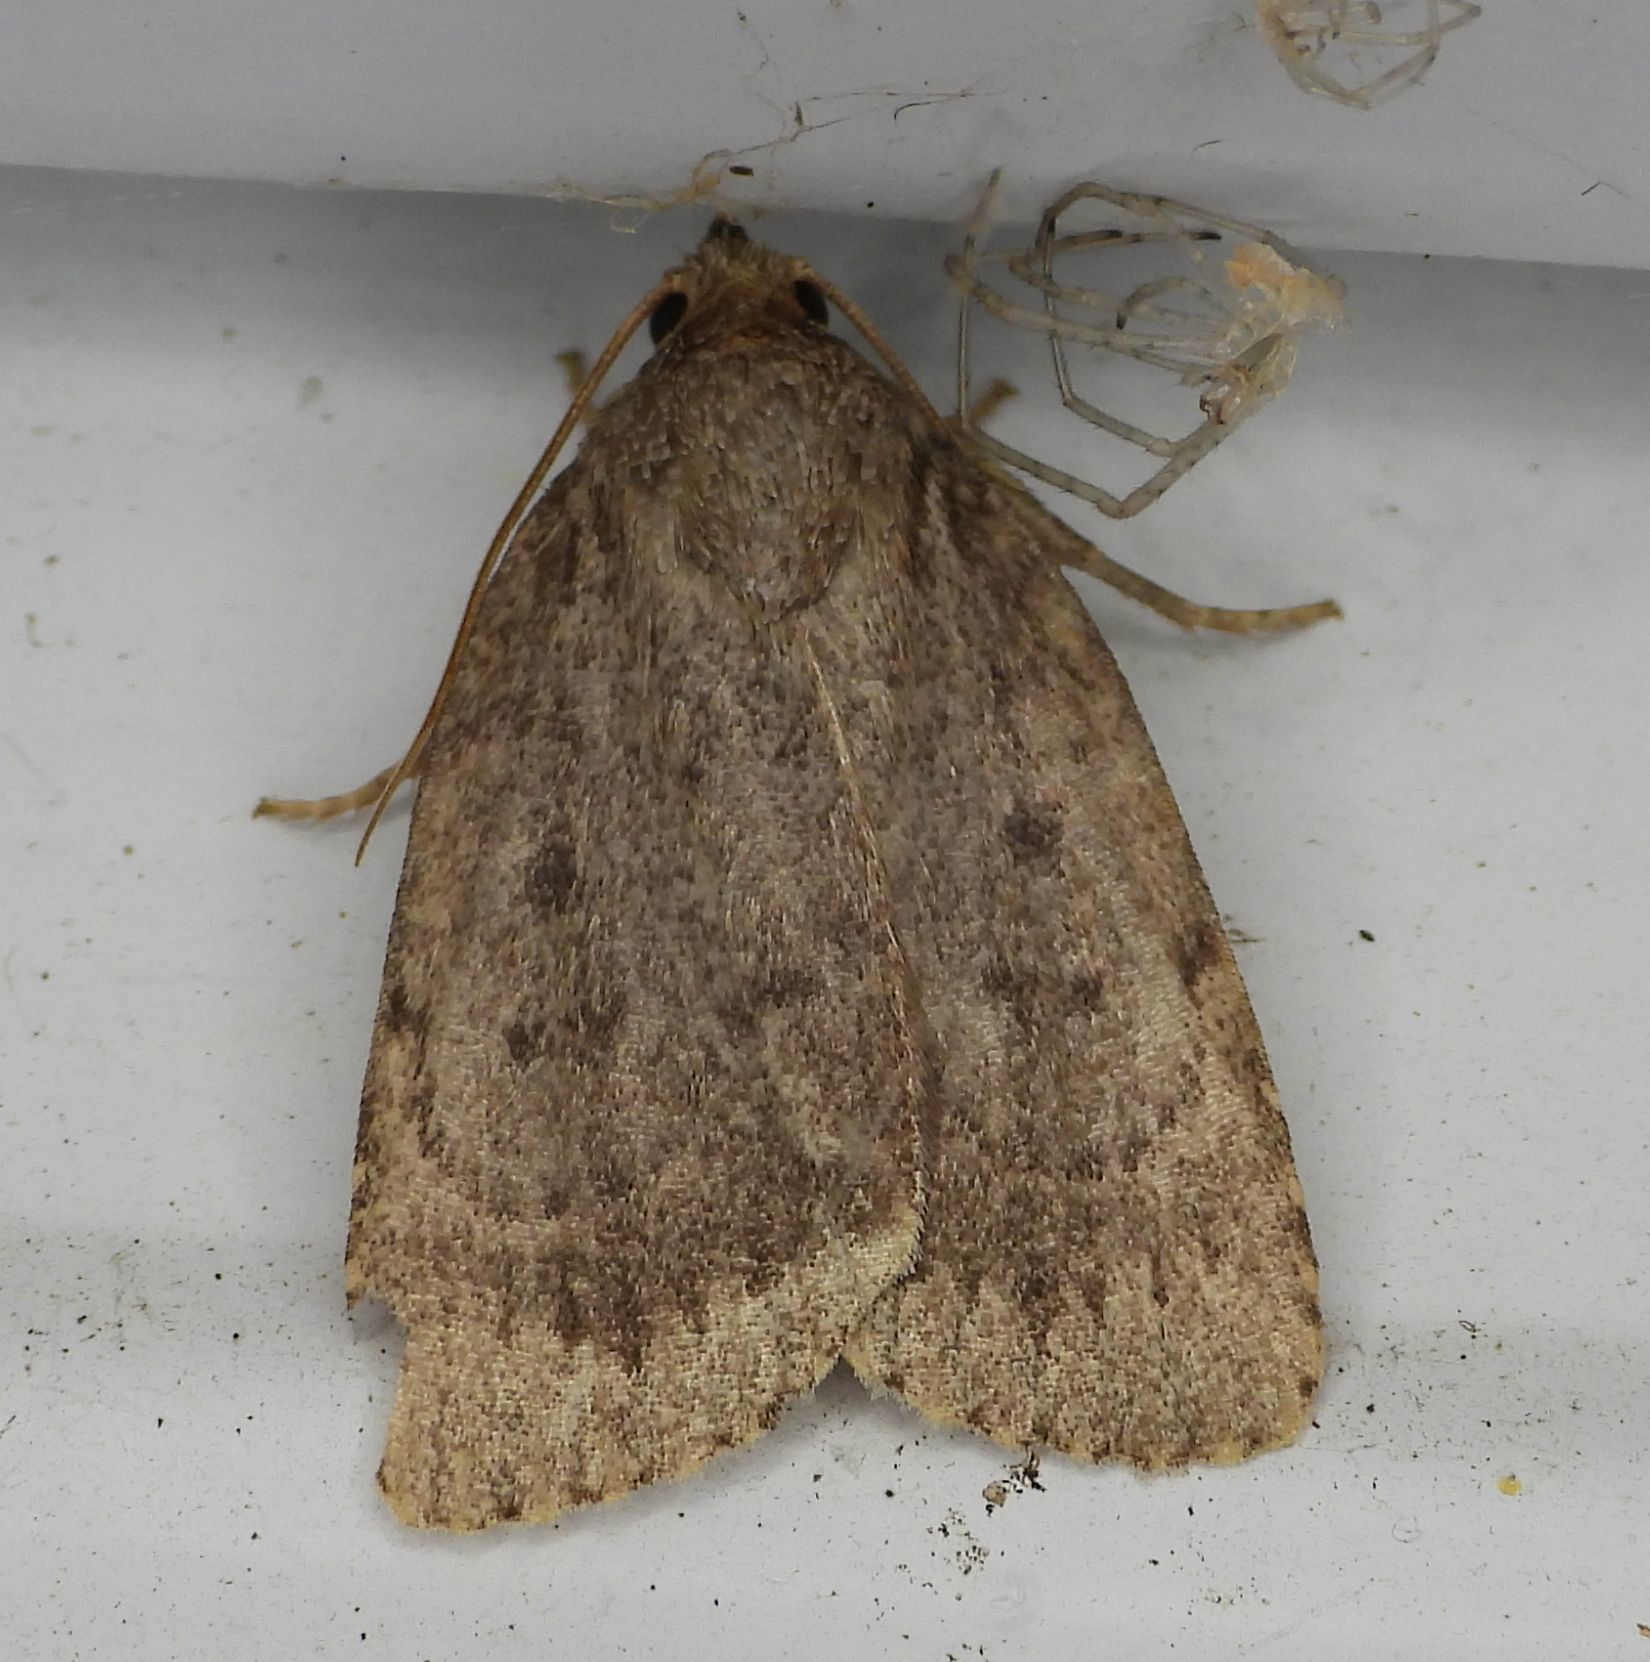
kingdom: Animalia
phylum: Arthropoda
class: Insecta
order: Lepidoptera
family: Noctuidae
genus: Amphipyra
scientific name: Amphipyra pyramidoides
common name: American copper underwing
